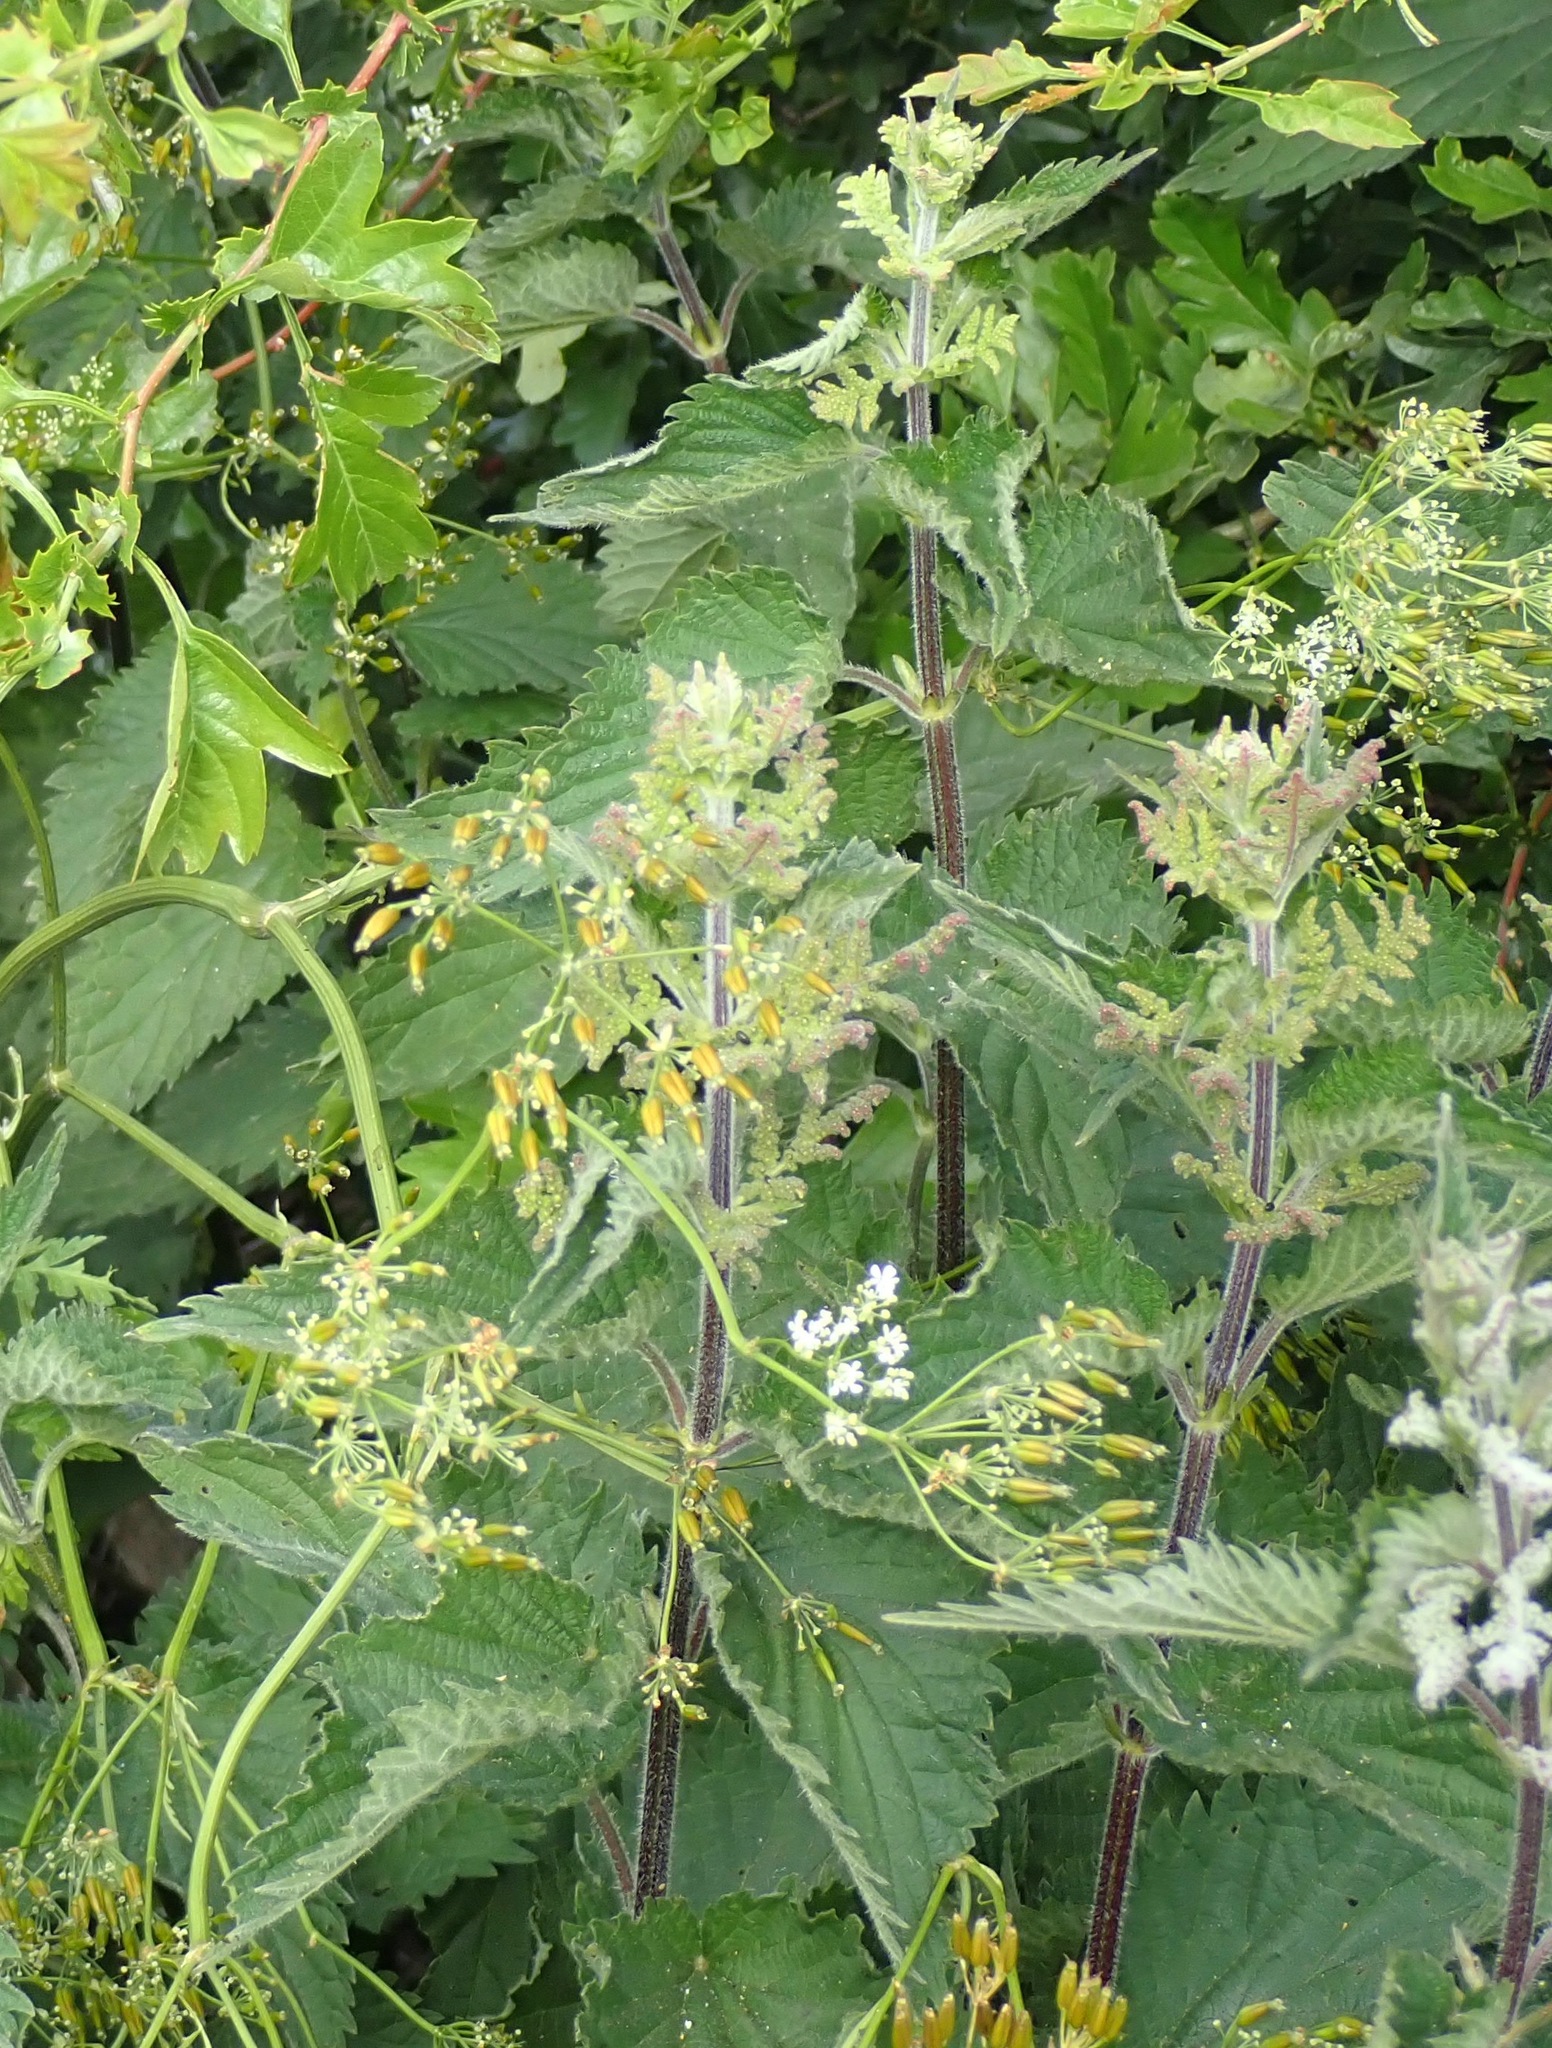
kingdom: Plantae
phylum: Tracheophyta
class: Magnoliopsida
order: Rosales
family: Urticaceae
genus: Urtica
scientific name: Urtica dioica
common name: Common nettle
